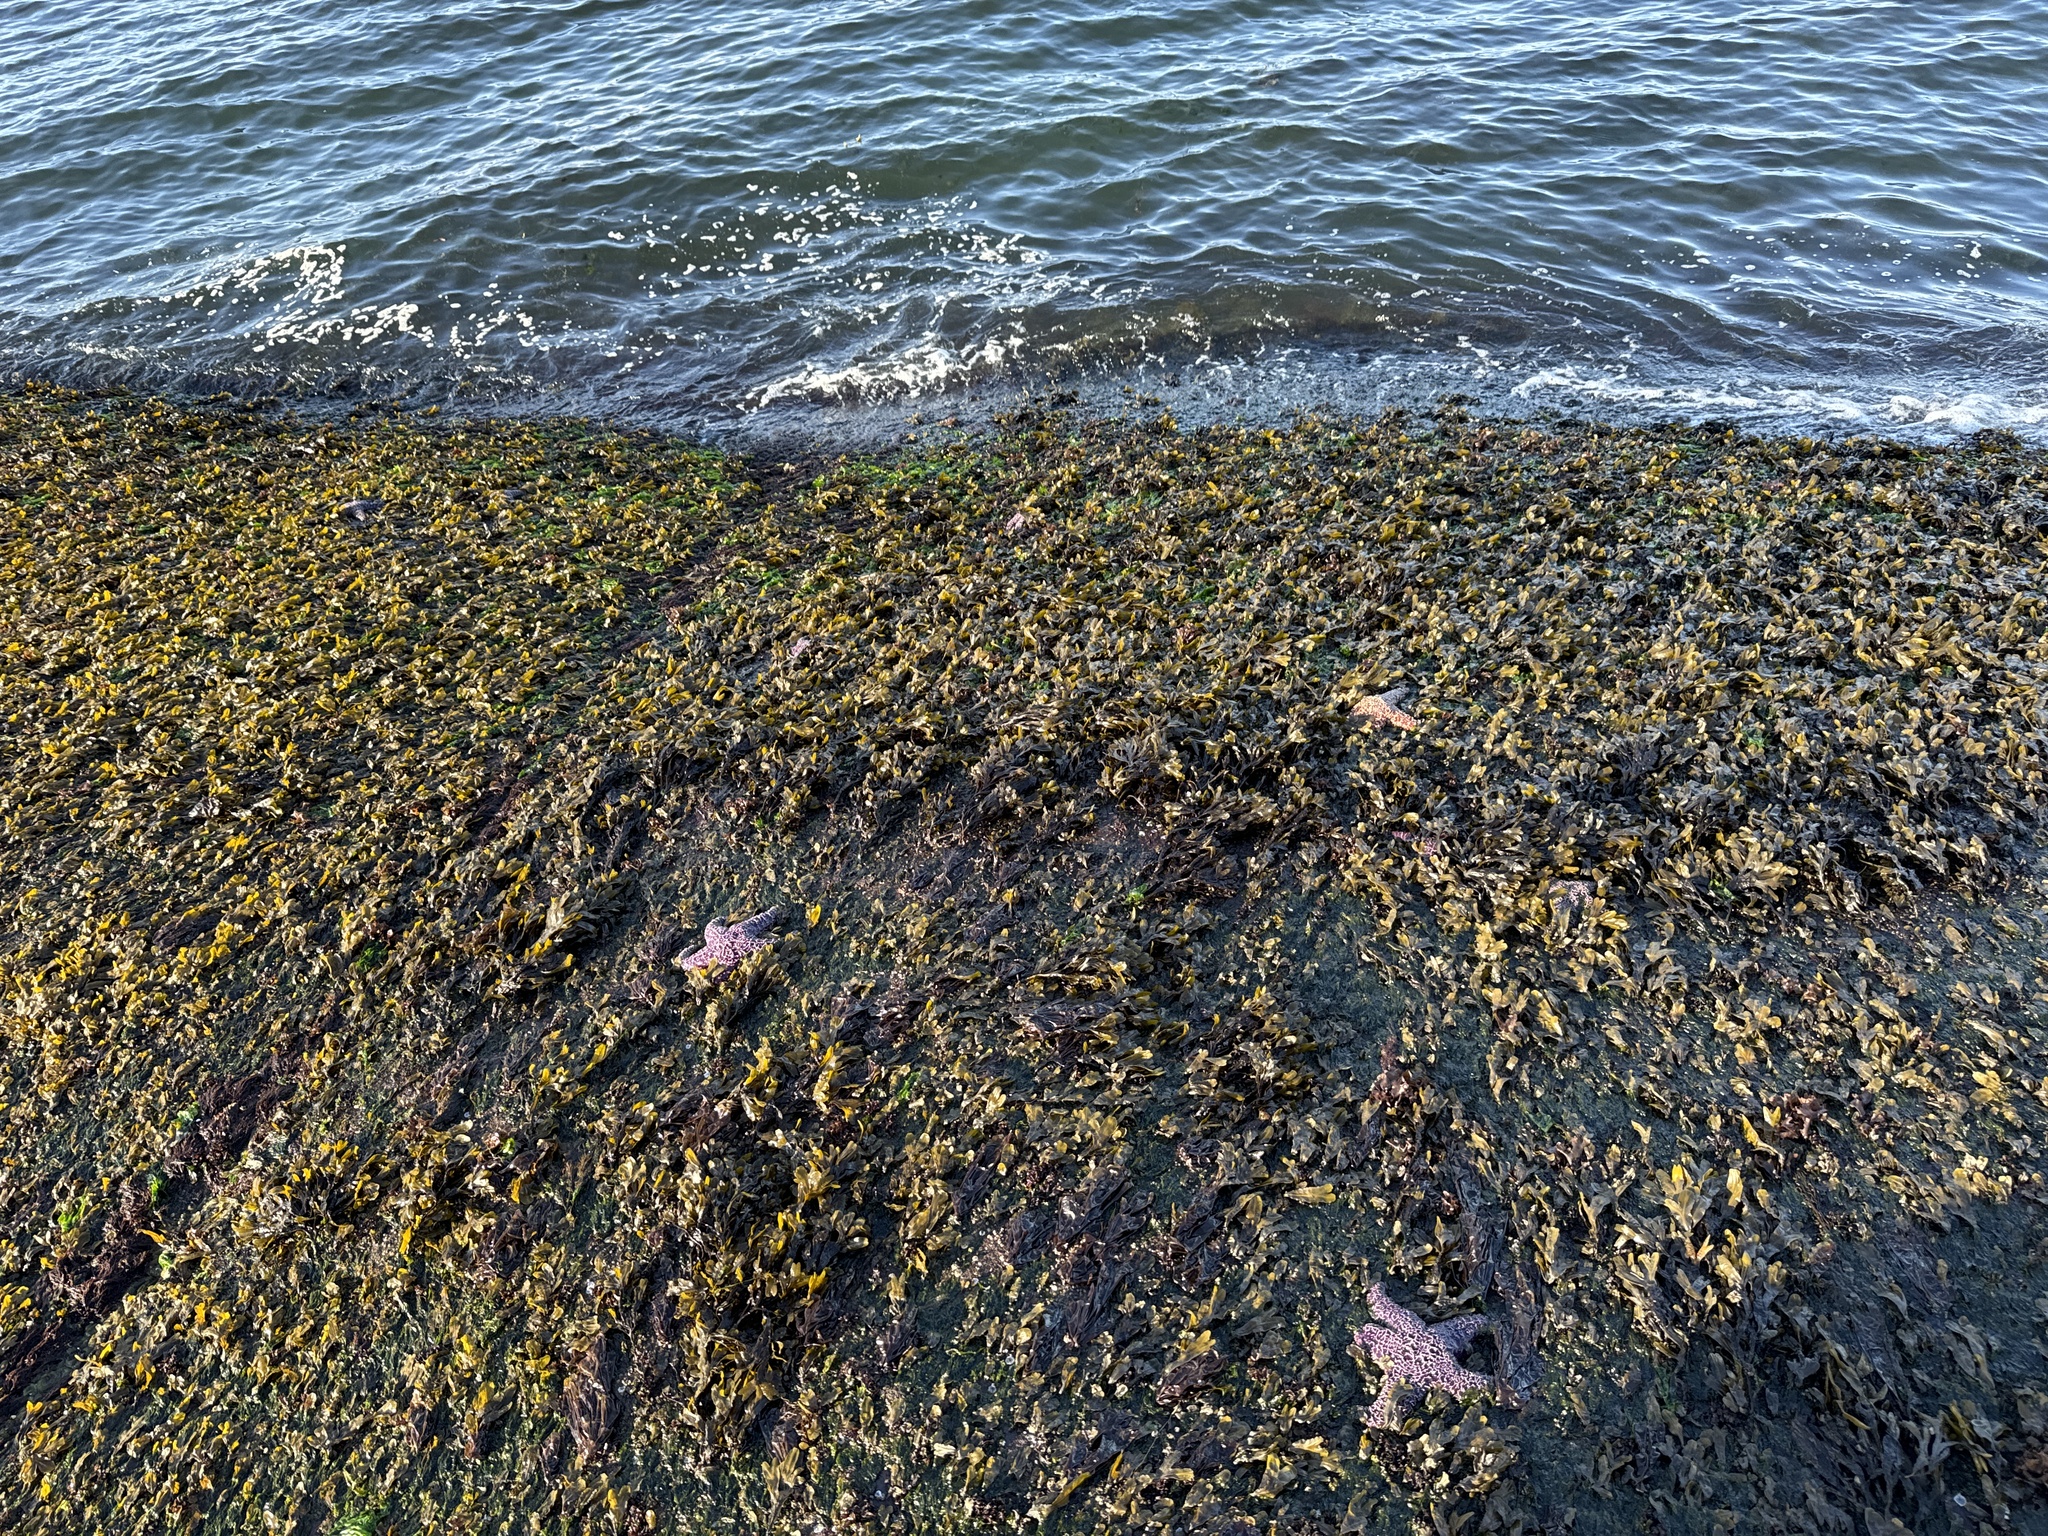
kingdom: Animalia
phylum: Echinodermata
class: Asteroidea
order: Forcipulatida
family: Asteriidae
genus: Pisaster
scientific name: Pisaster ochraceus
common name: Ochre stars
